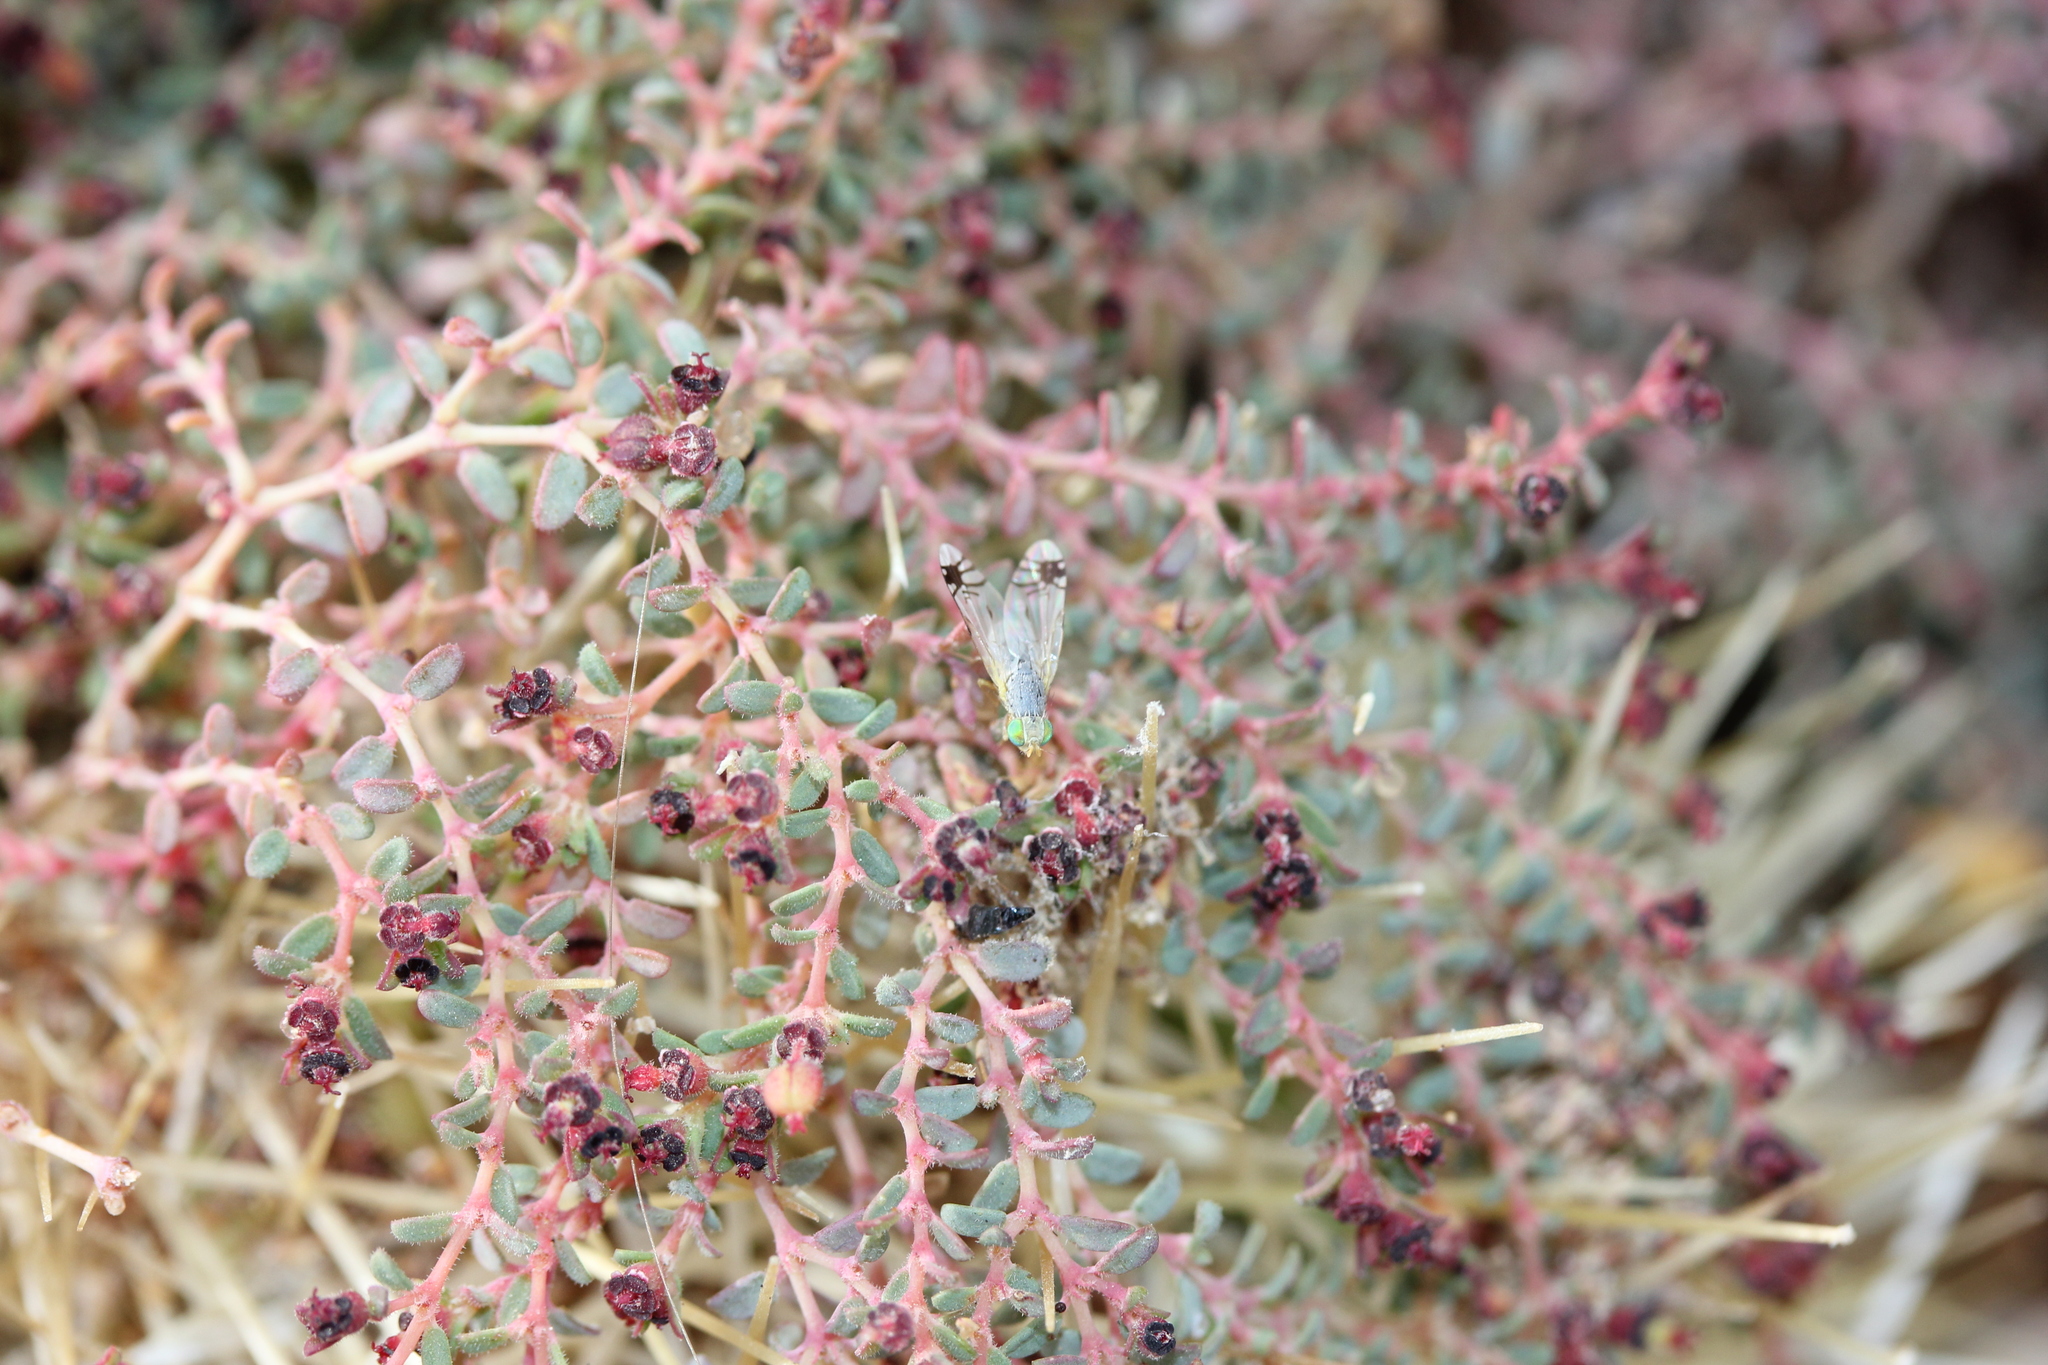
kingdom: Plantae
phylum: Tracheophyta
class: Magnoliopsida
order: Malpighiales
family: Euphorbiaceae
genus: Euphorbia
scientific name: Euphorbia polycarpa
